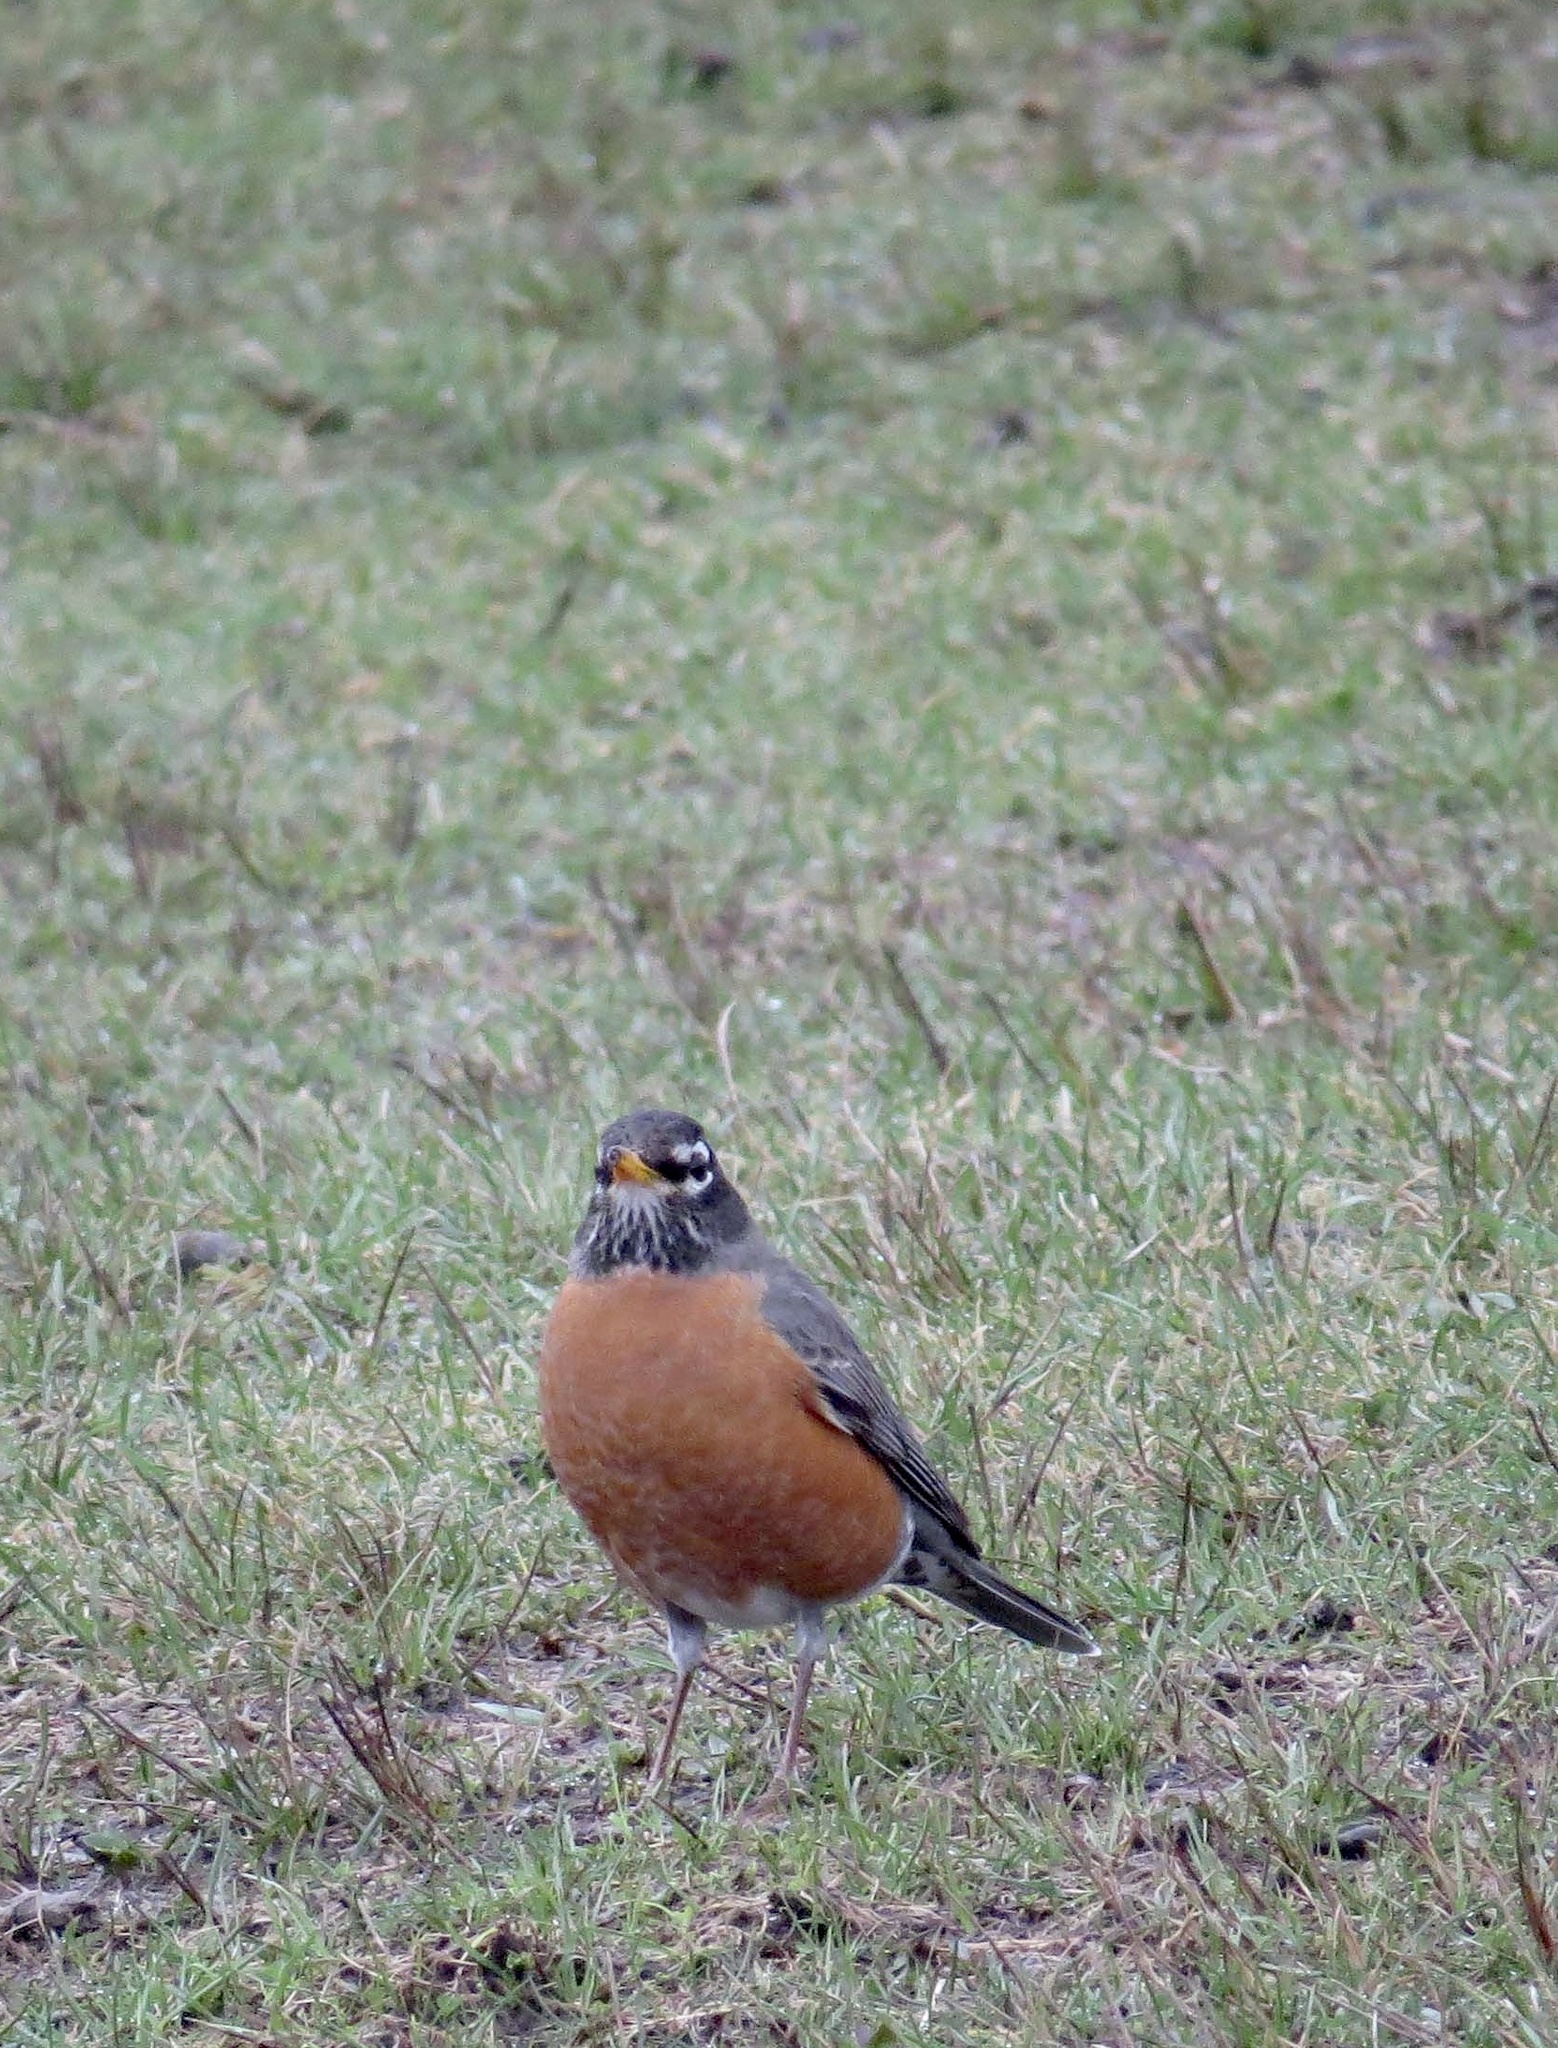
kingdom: Animalia
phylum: Chordata
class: Aves
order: Passeriformes
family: Turdidae
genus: Turdus
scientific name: Turdus migratorius
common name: American robin
